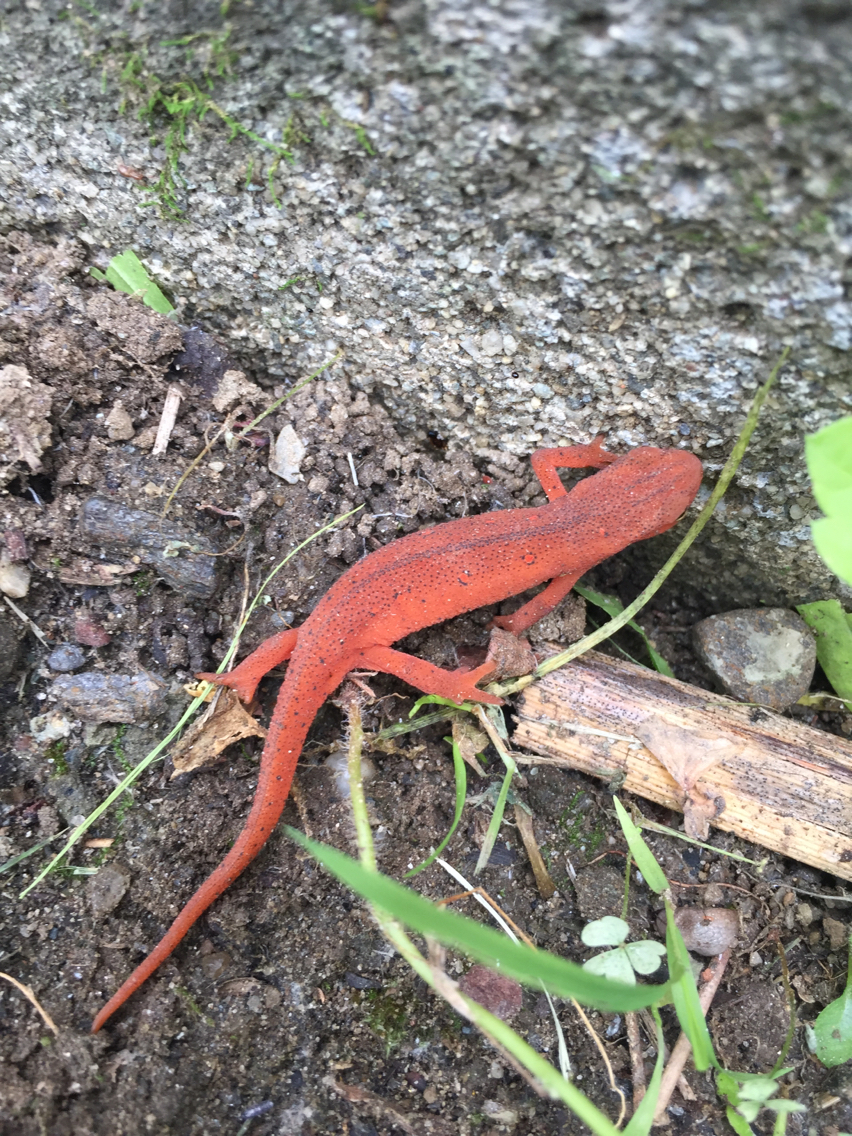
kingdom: Animalia
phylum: Chordata
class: Amphibia
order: Caudata
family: Salamandridae
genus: Notophthalmus
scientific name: Notophthalmus viridescens
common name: Eastern newt
